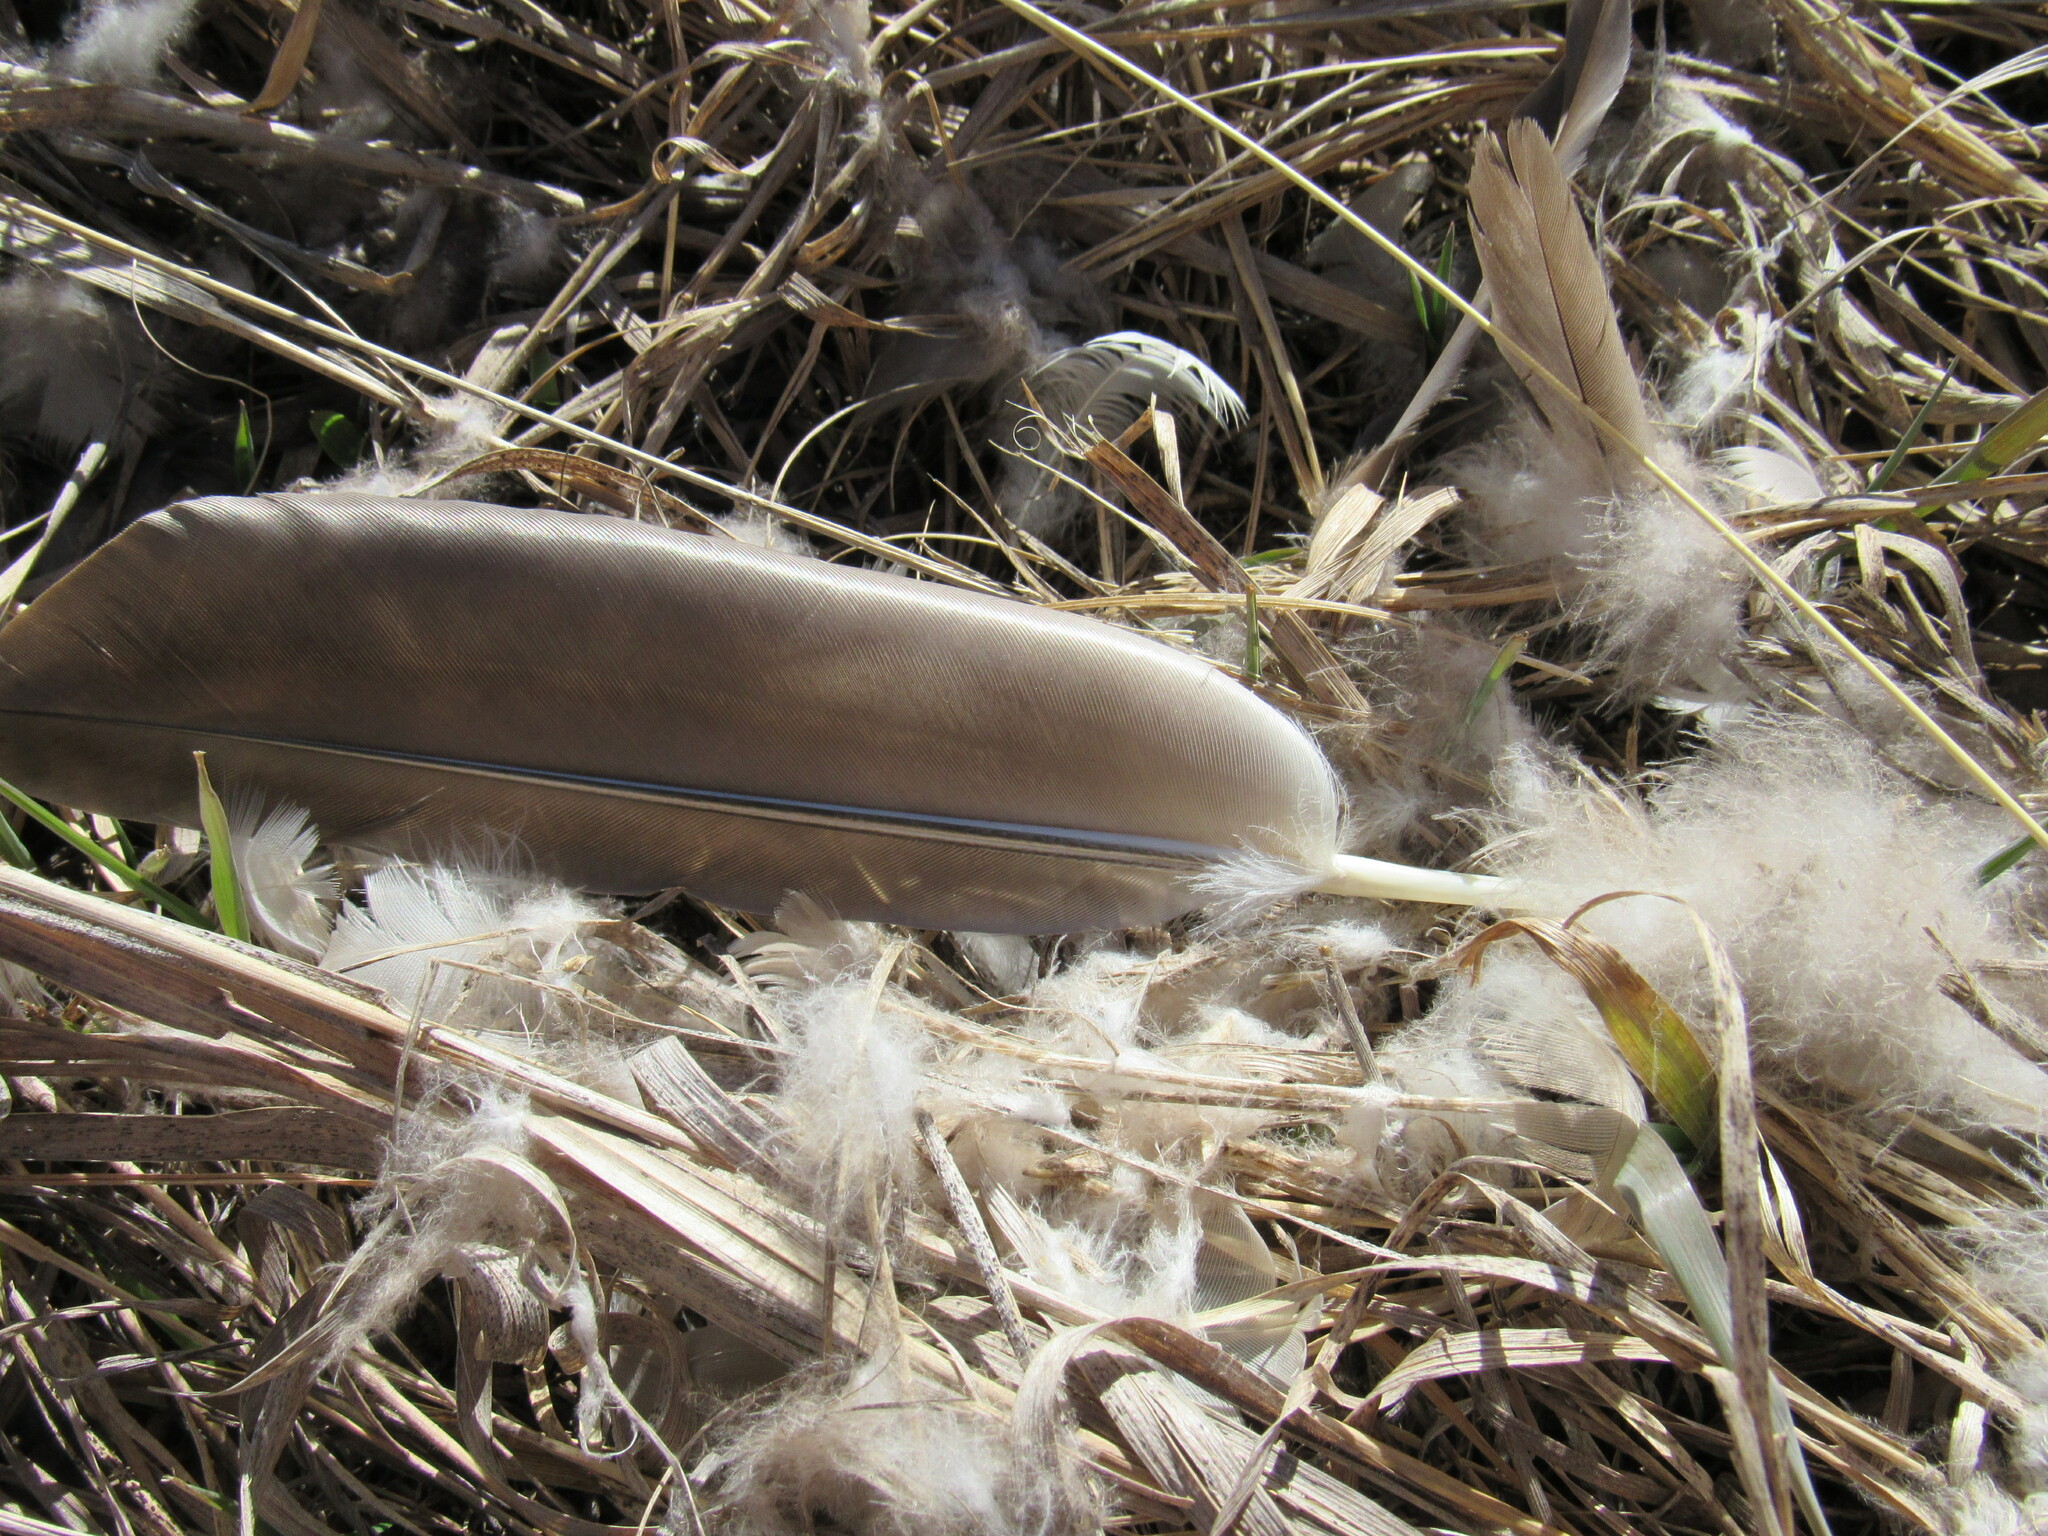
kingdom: Animalia
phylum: Chordata
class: Aves
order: Anseriformes
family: Anatidae
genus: Branta
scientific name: Branta canadensis
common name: Canada goose
